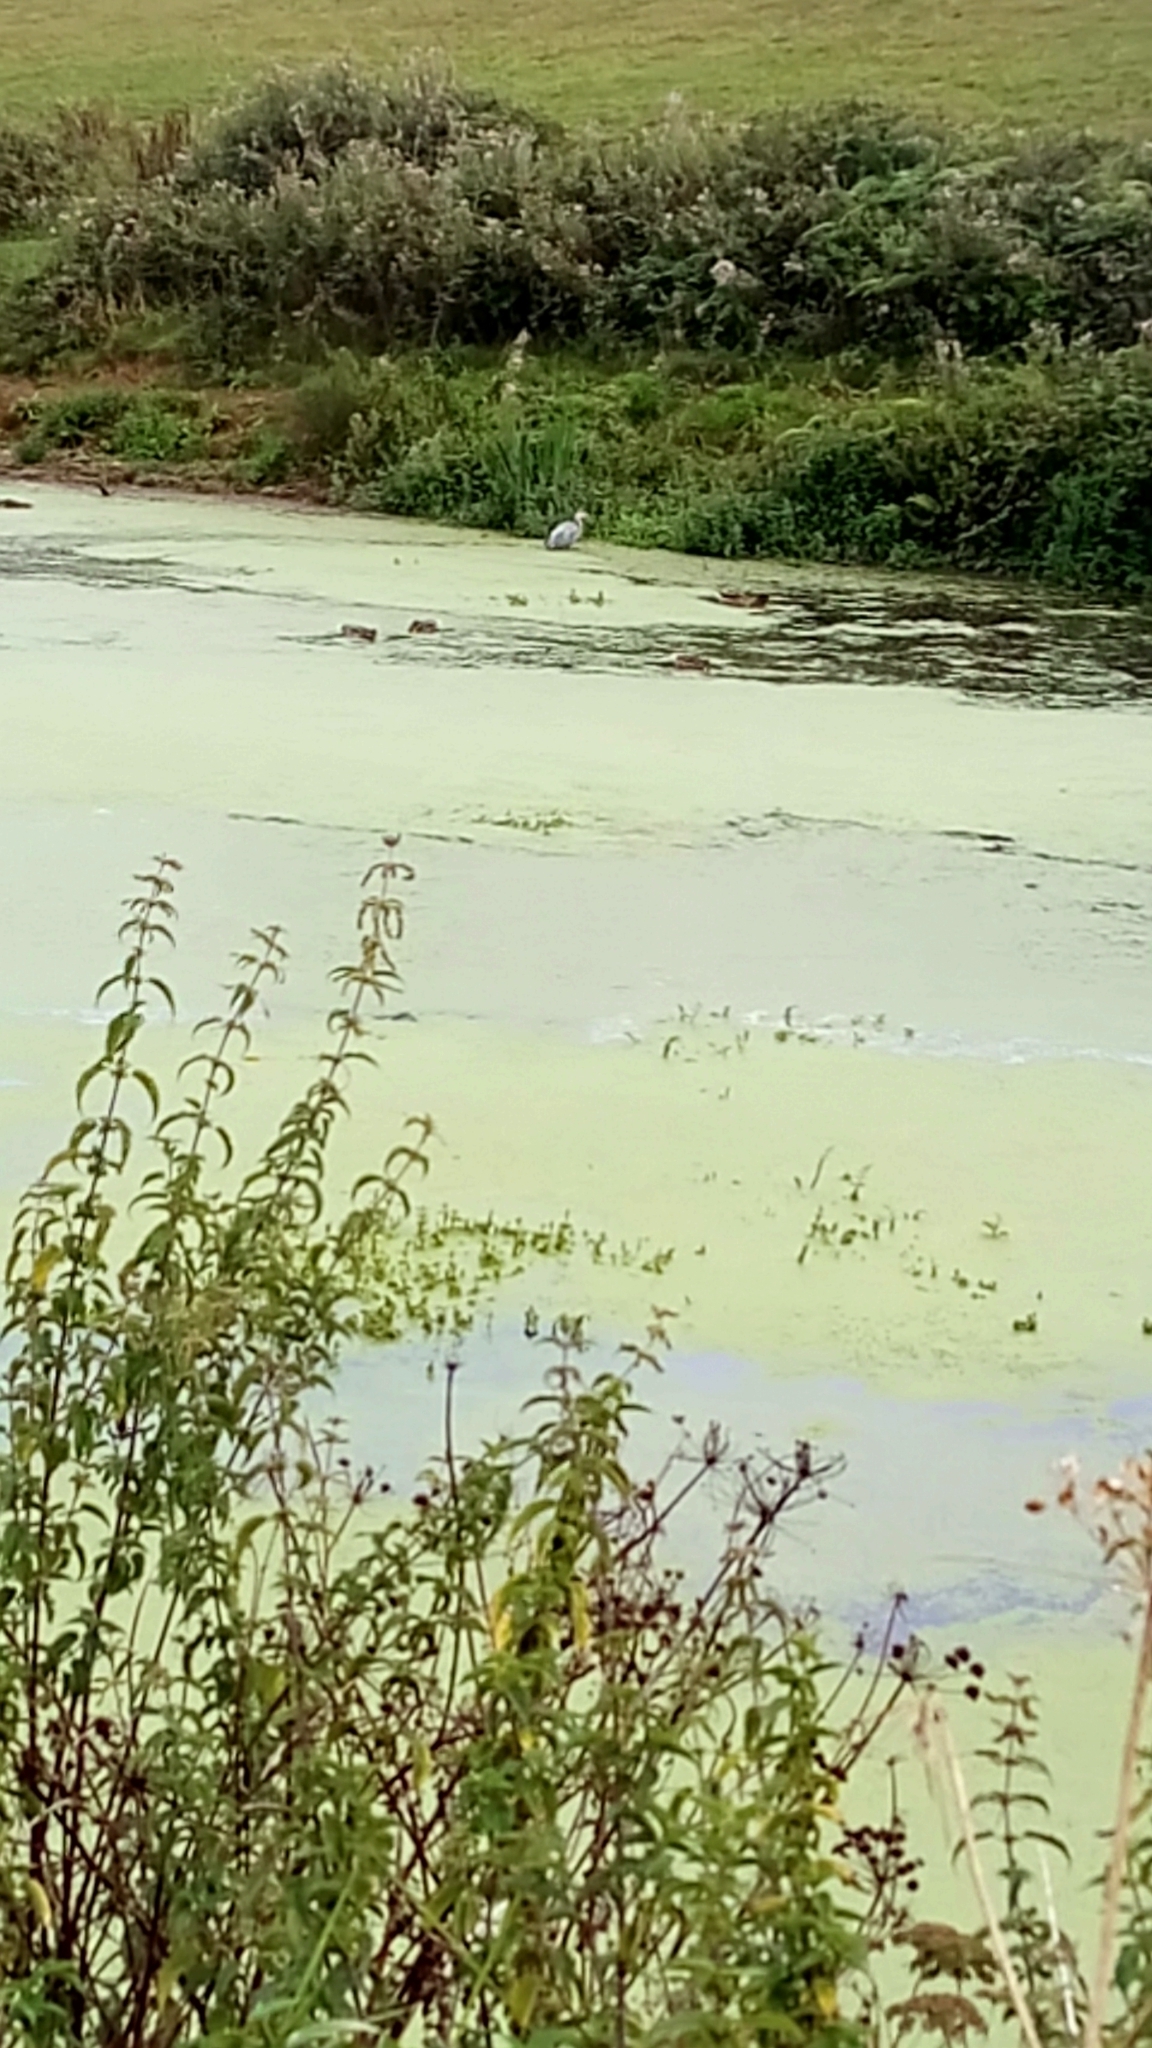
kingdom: Animalia
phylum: Chordata
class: Aves
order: Pelecaniformes
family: Ardeidae
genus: Ardea
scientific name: Ardea cinerea
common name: Grey heron
